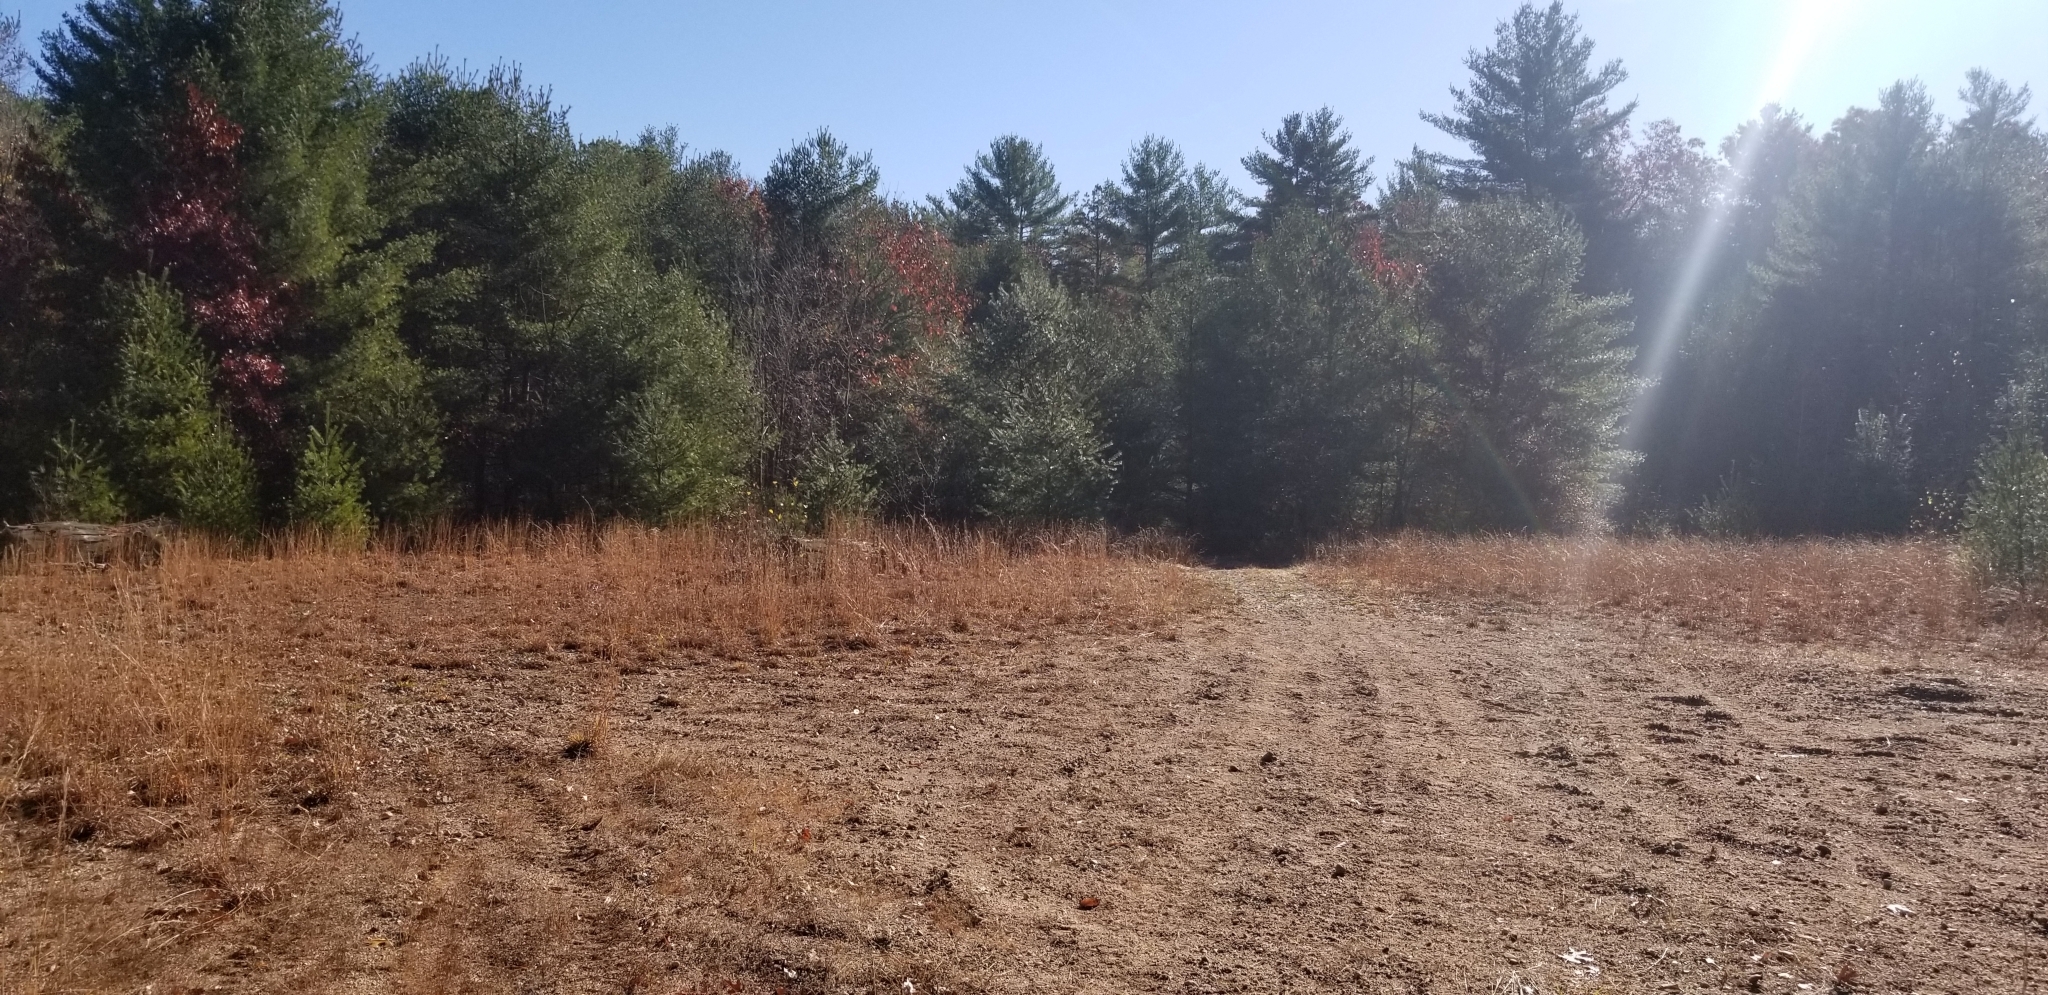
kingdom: Plantae
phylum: Tracheophyta
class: Liliopsida
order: Poales
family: Poaceae
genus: Schizachyrium
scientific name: Schizachyrium scoparium
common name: Little bluestem
